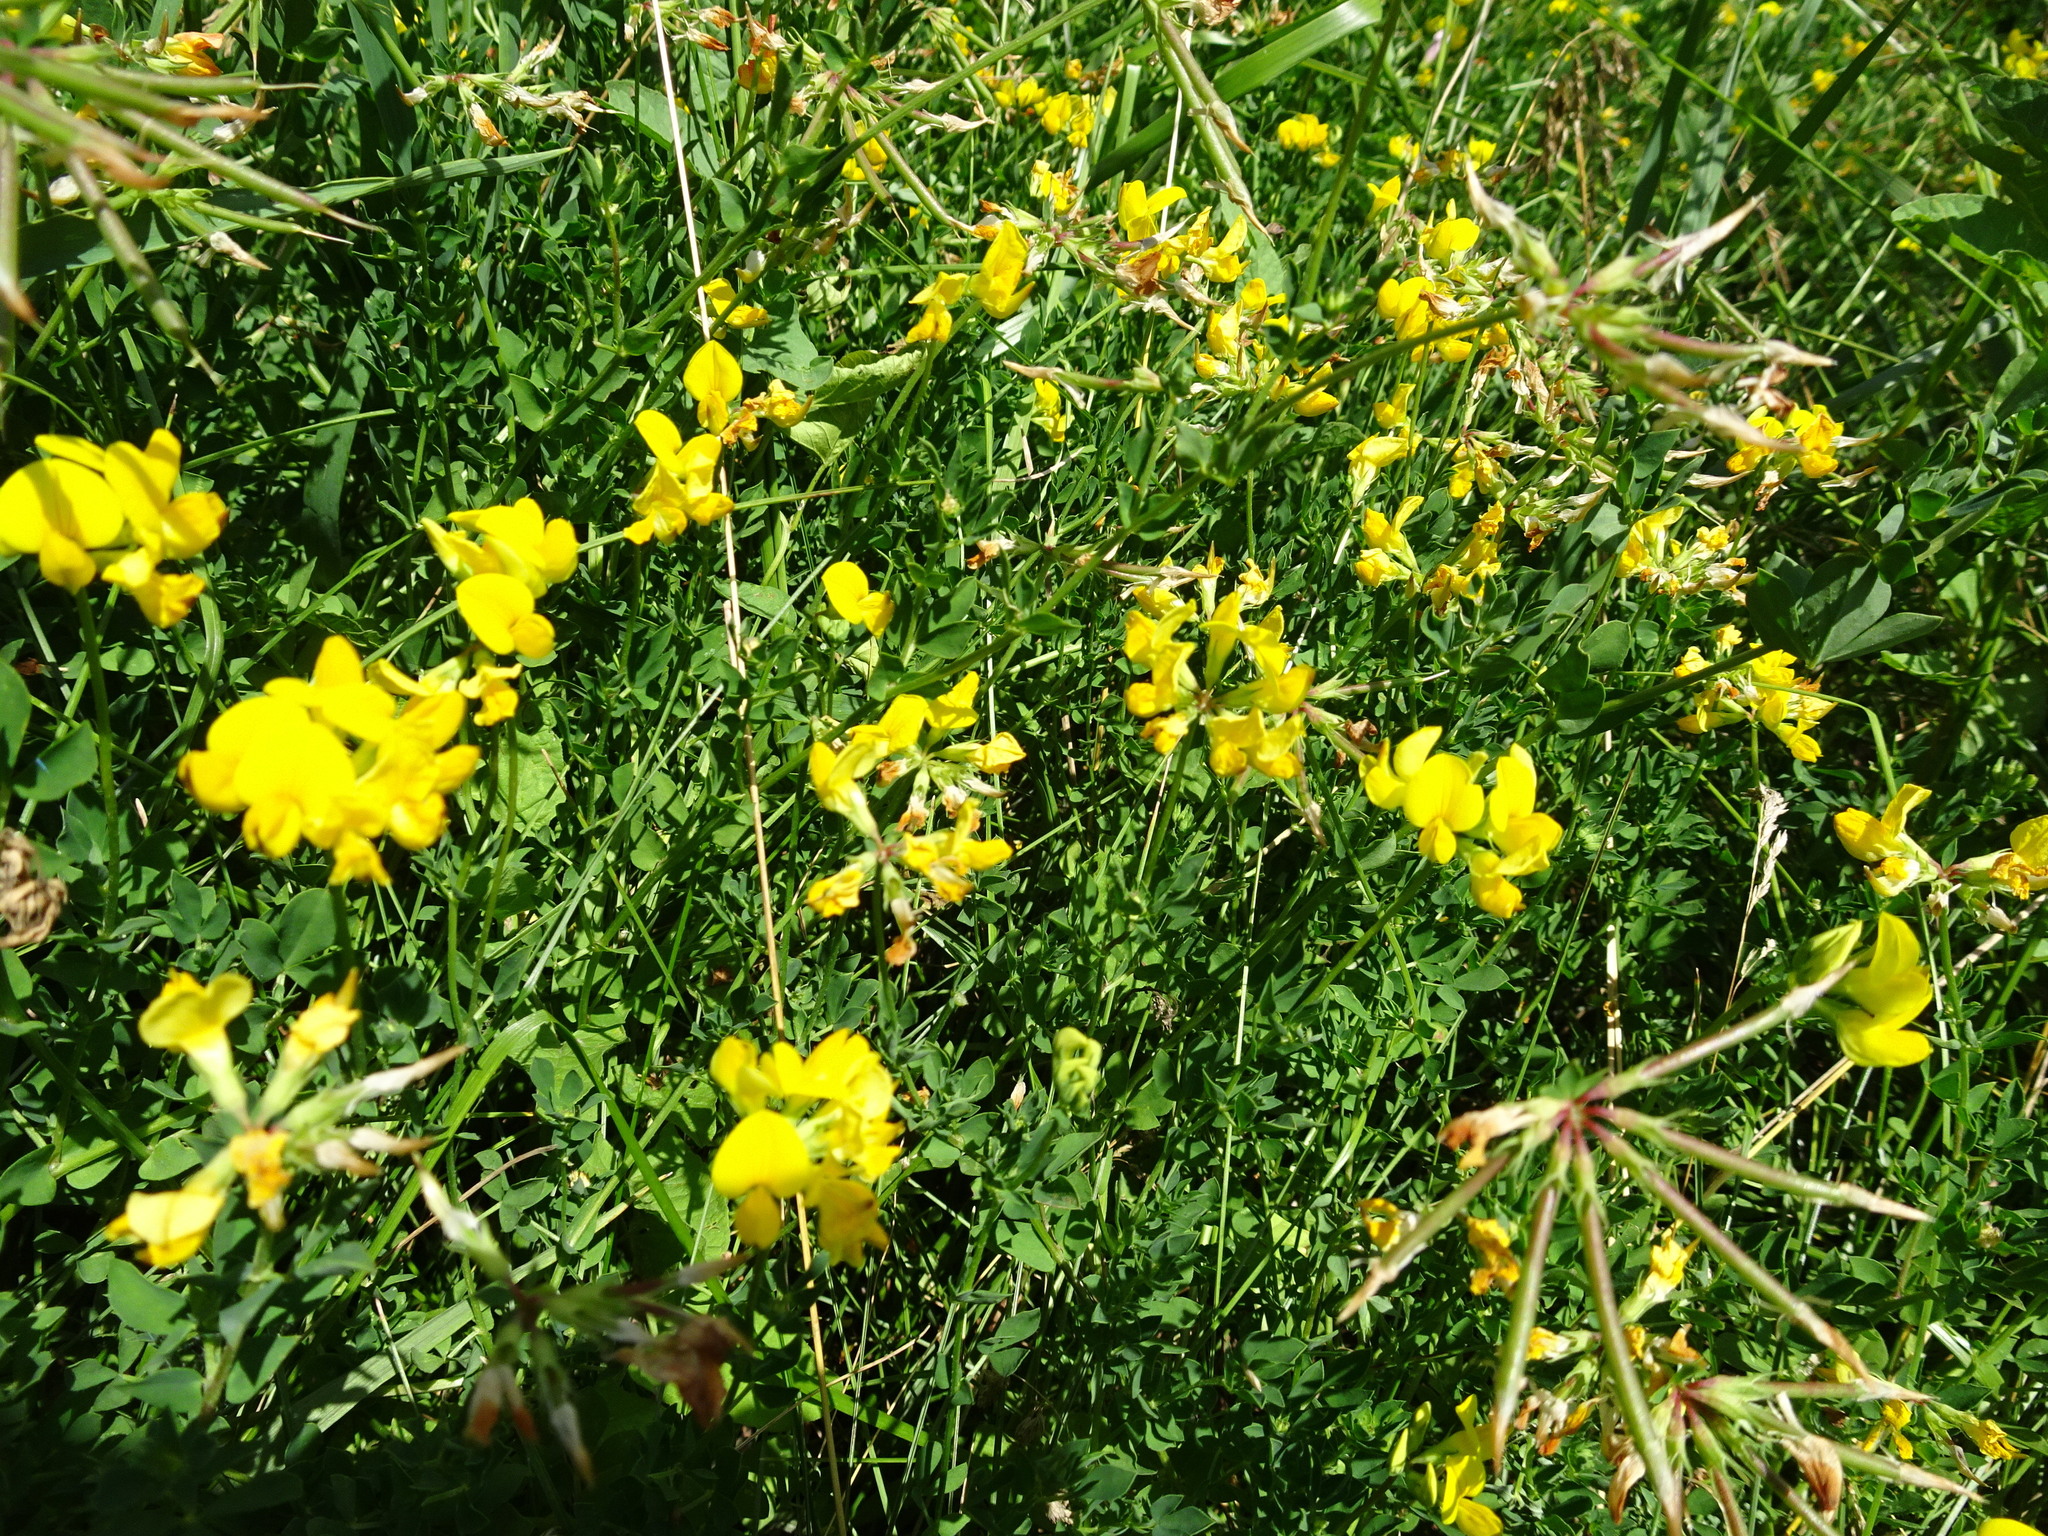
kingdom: Plantae
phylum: Tracheophyta
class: Magnoliopsida
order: Fabales
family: Fabaceae
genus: Lotus
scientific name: Lotus corniculatus
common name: Common bird's-foot-trefoil
